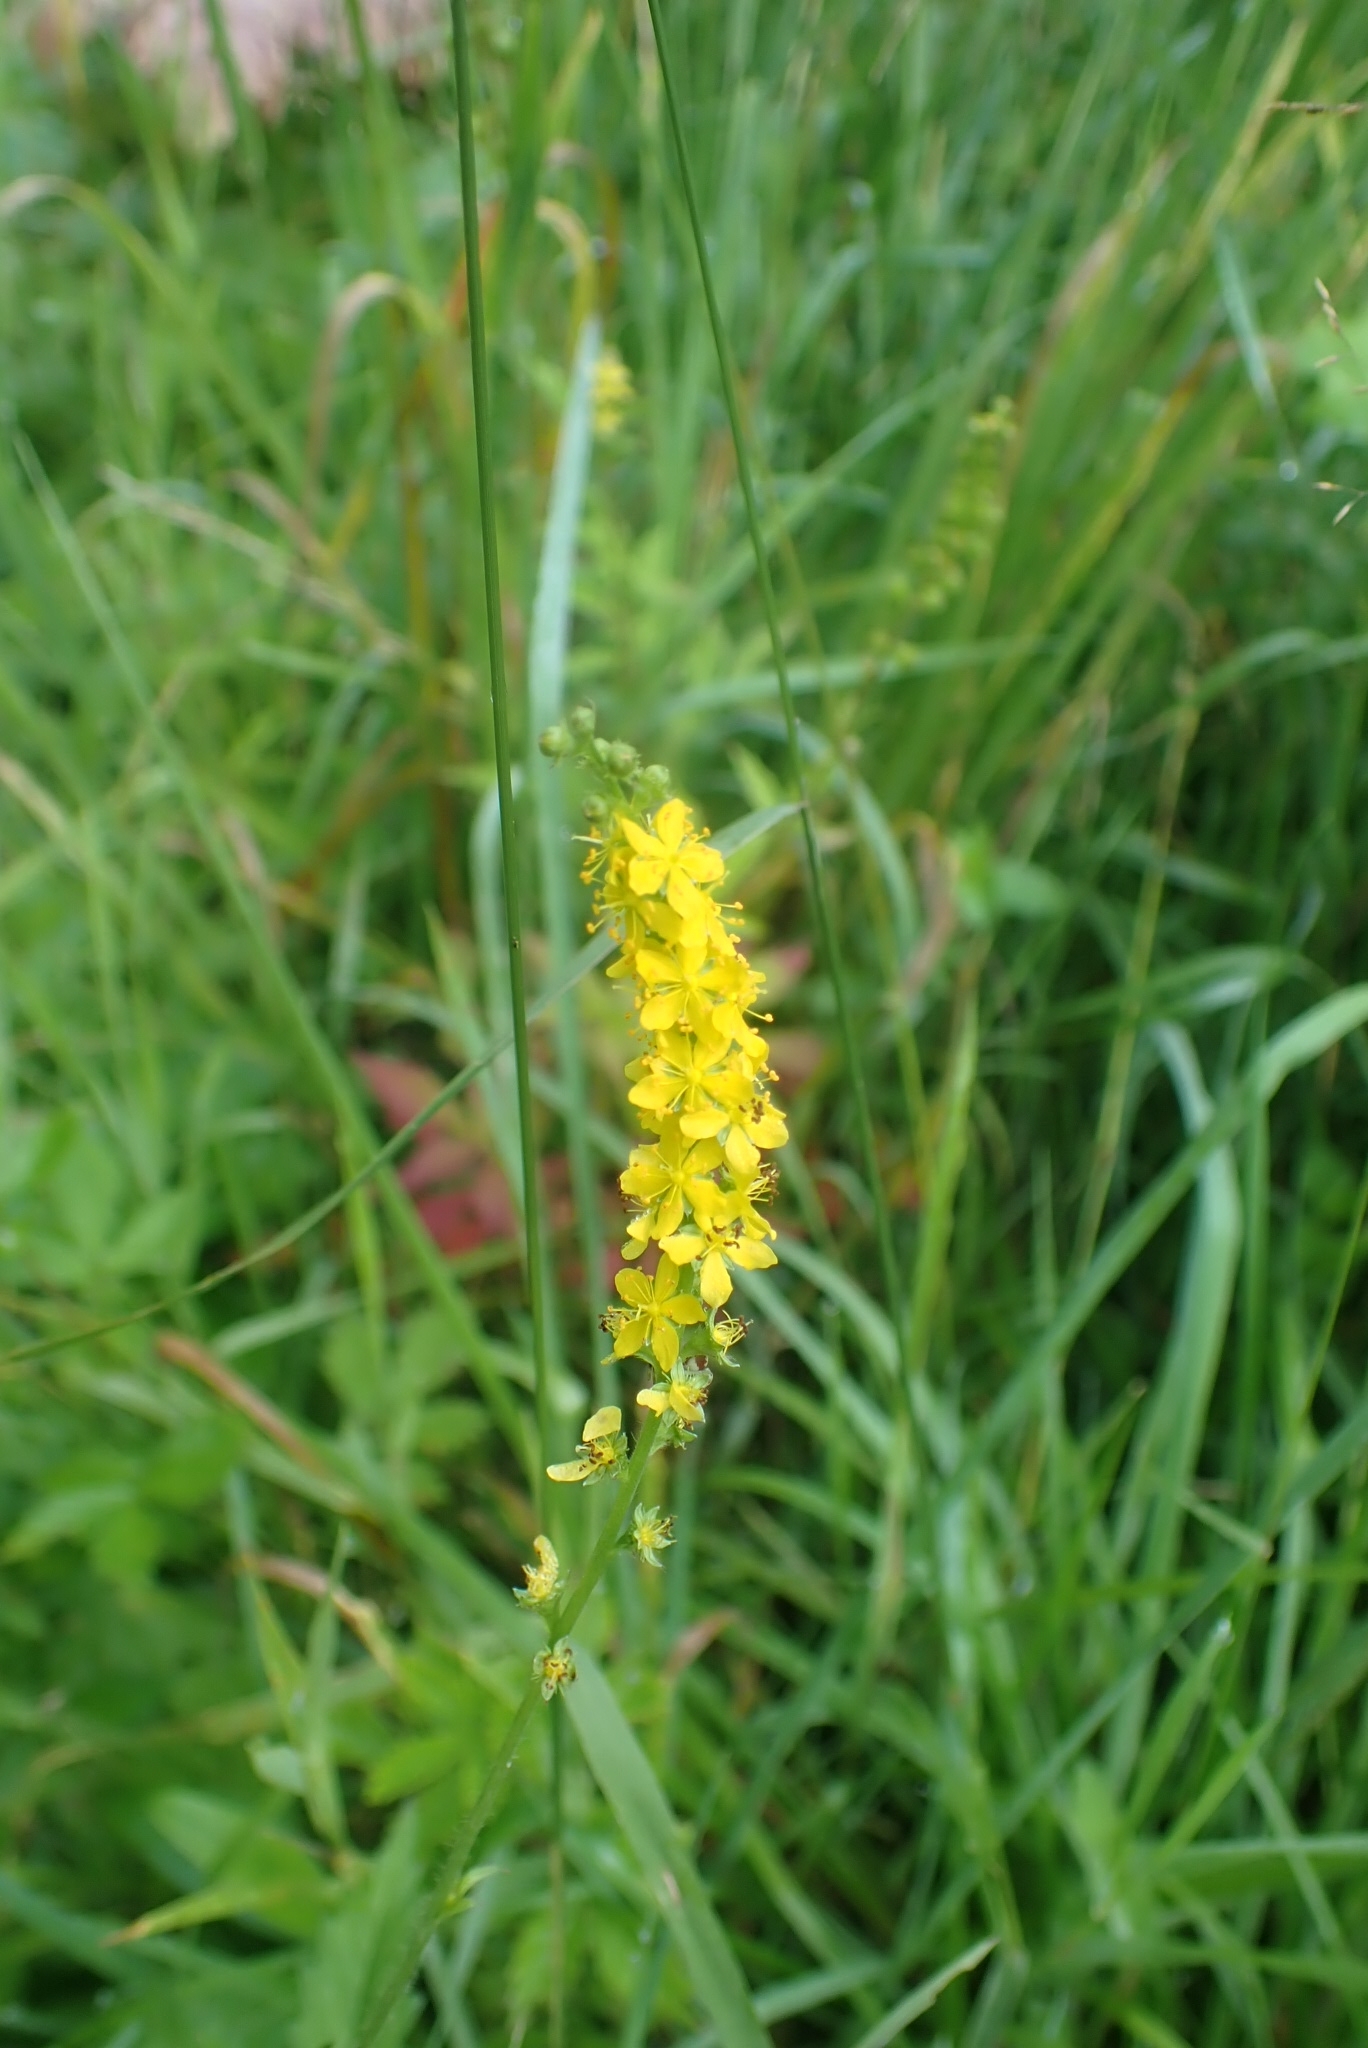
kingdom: Plantae
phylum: Tracheophyta
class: Magnoliopsida
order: Rosales
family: Rosaceae
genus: Agrimonia
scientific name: Agrimonia pilosa
